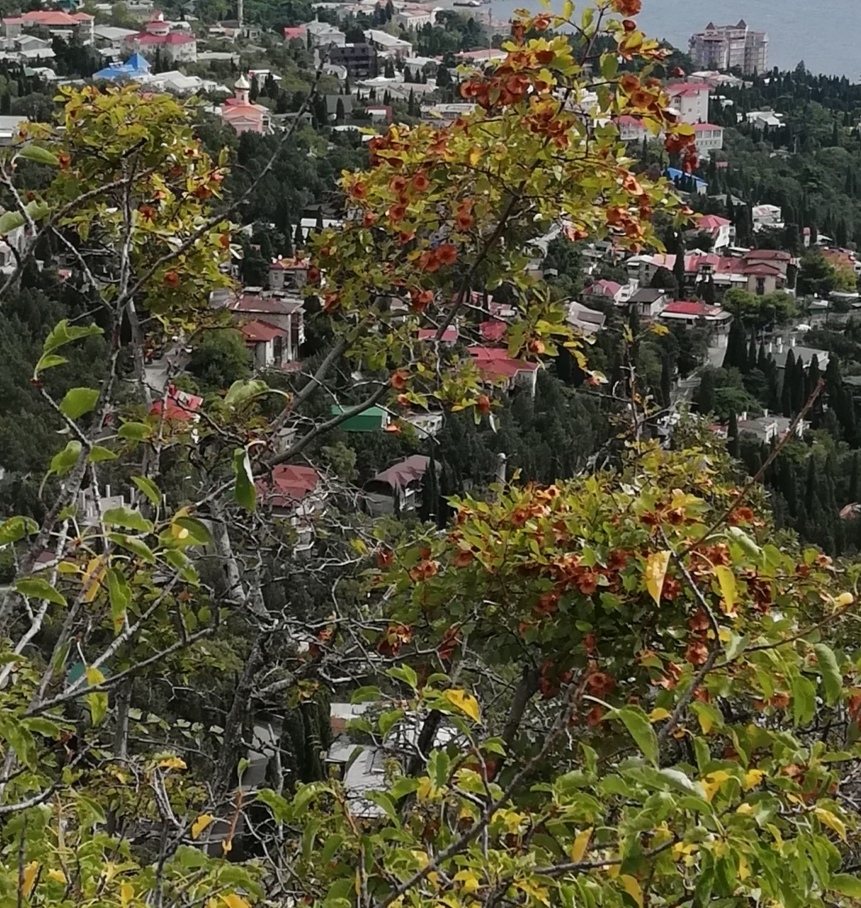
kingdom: Plantae
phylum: Tracheophyta
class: Magnoliopsida
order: Rosales
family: Rhamnaceae
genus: Paliurus
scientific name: Paliurus spina-christi
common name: Jeruselem thorn
